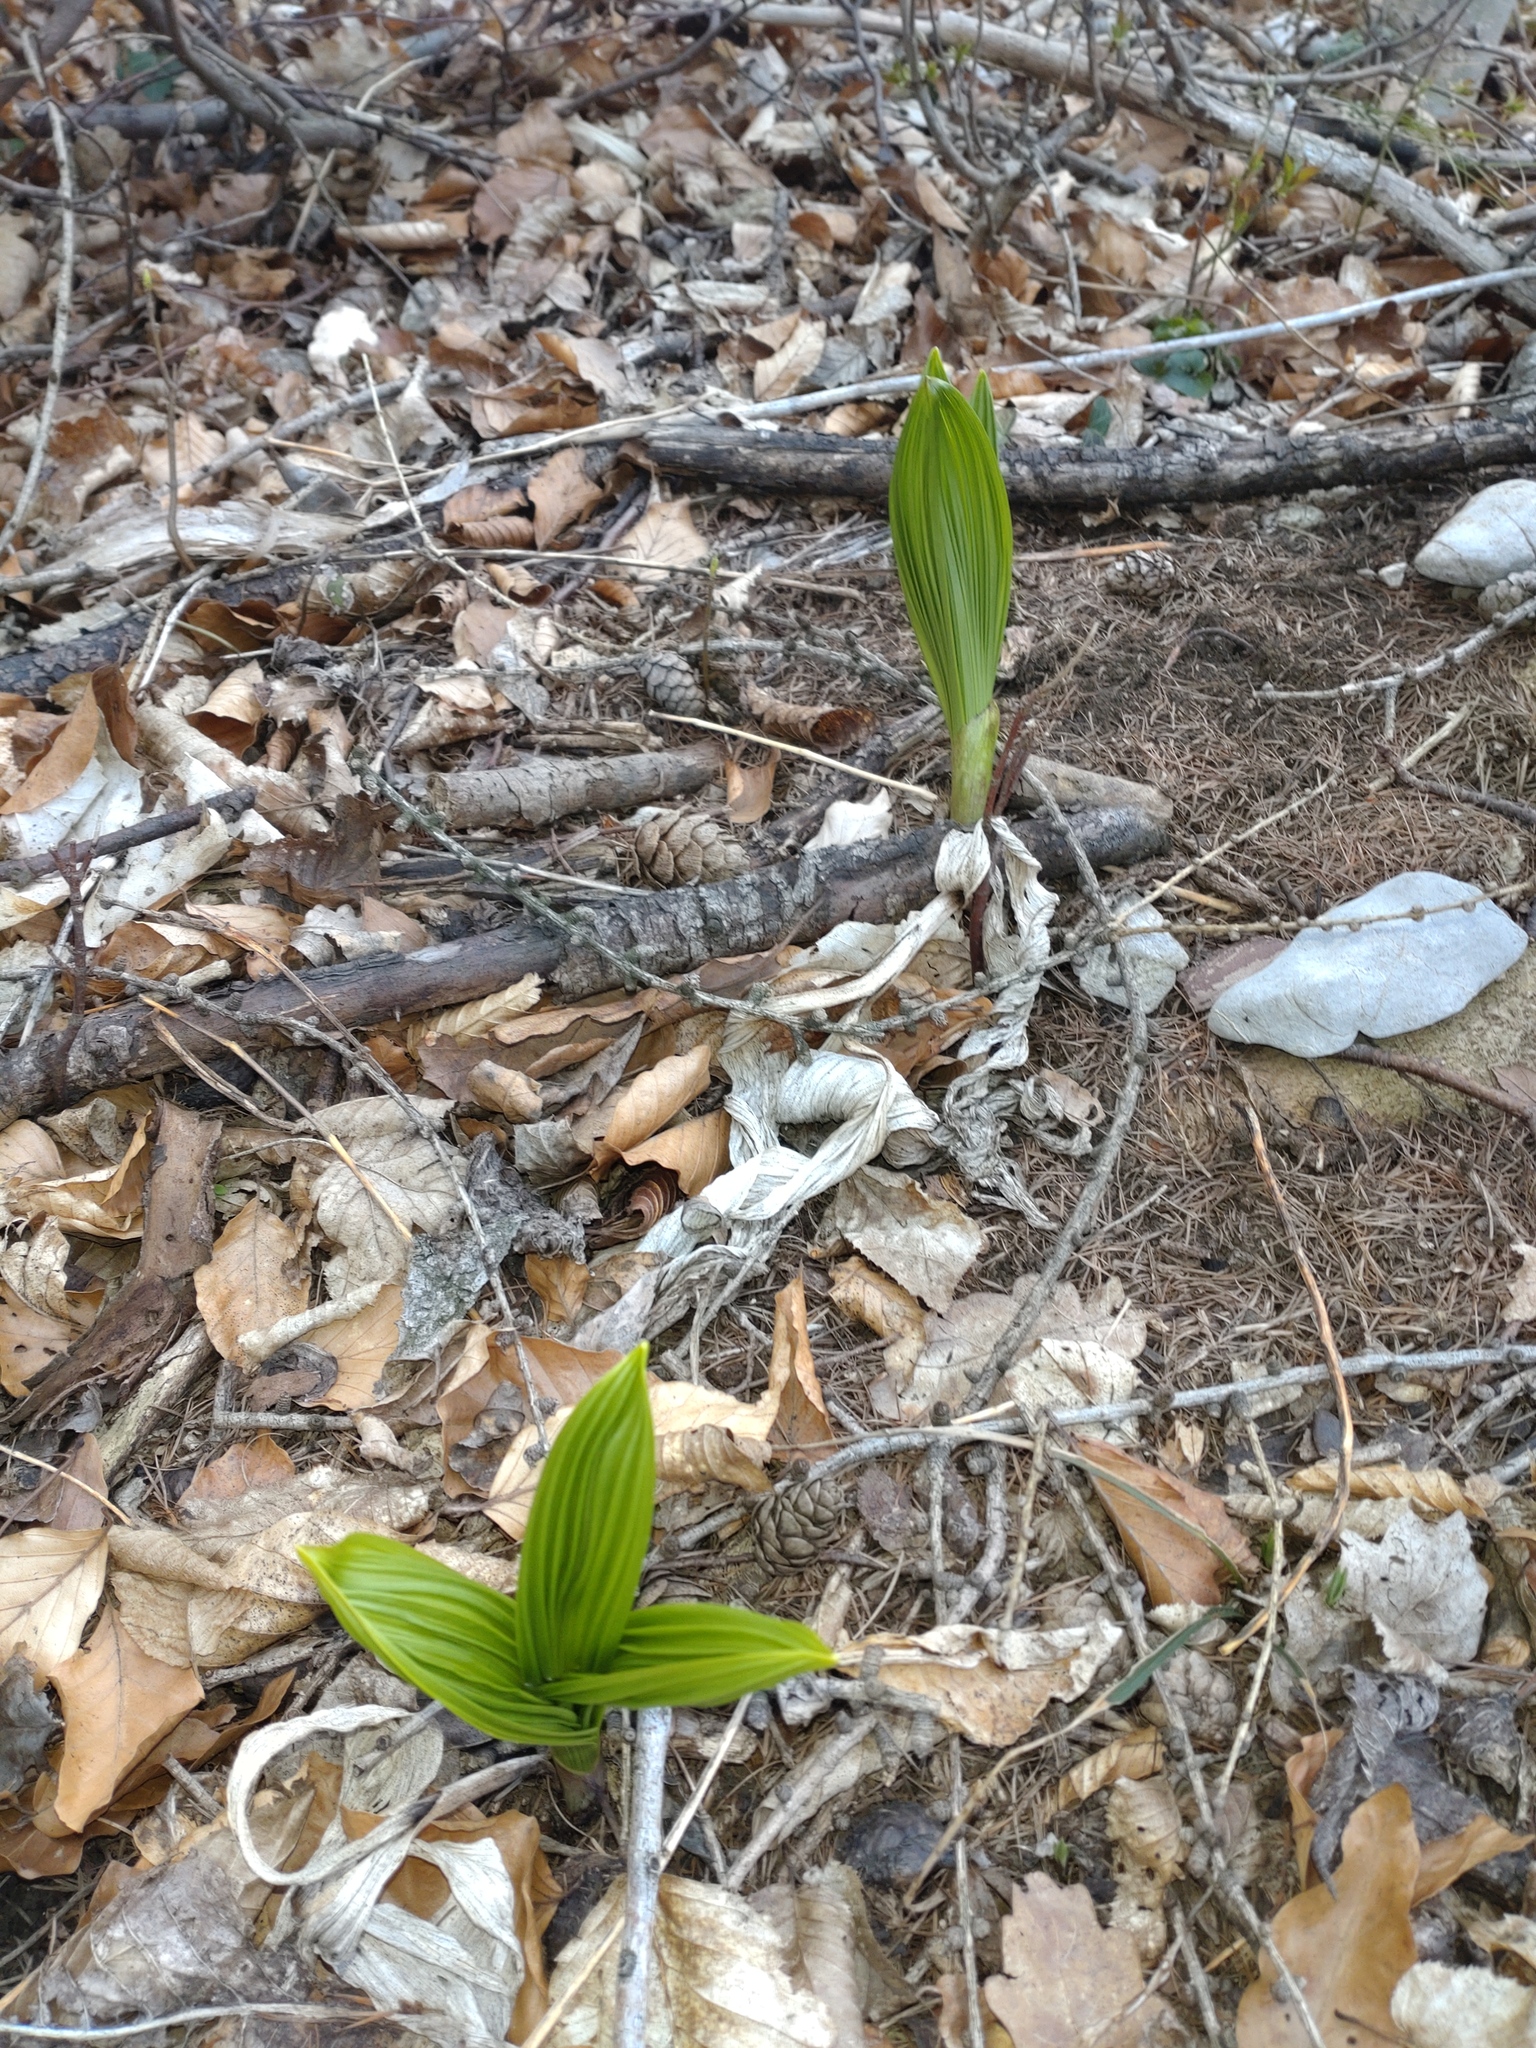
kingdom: Plantae
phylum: Tracheophyta
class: Liliopsida
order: Liliales
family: Melanthiaceae
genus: Veratrum
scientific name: Veratrum nigrum
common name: Black veratrum
